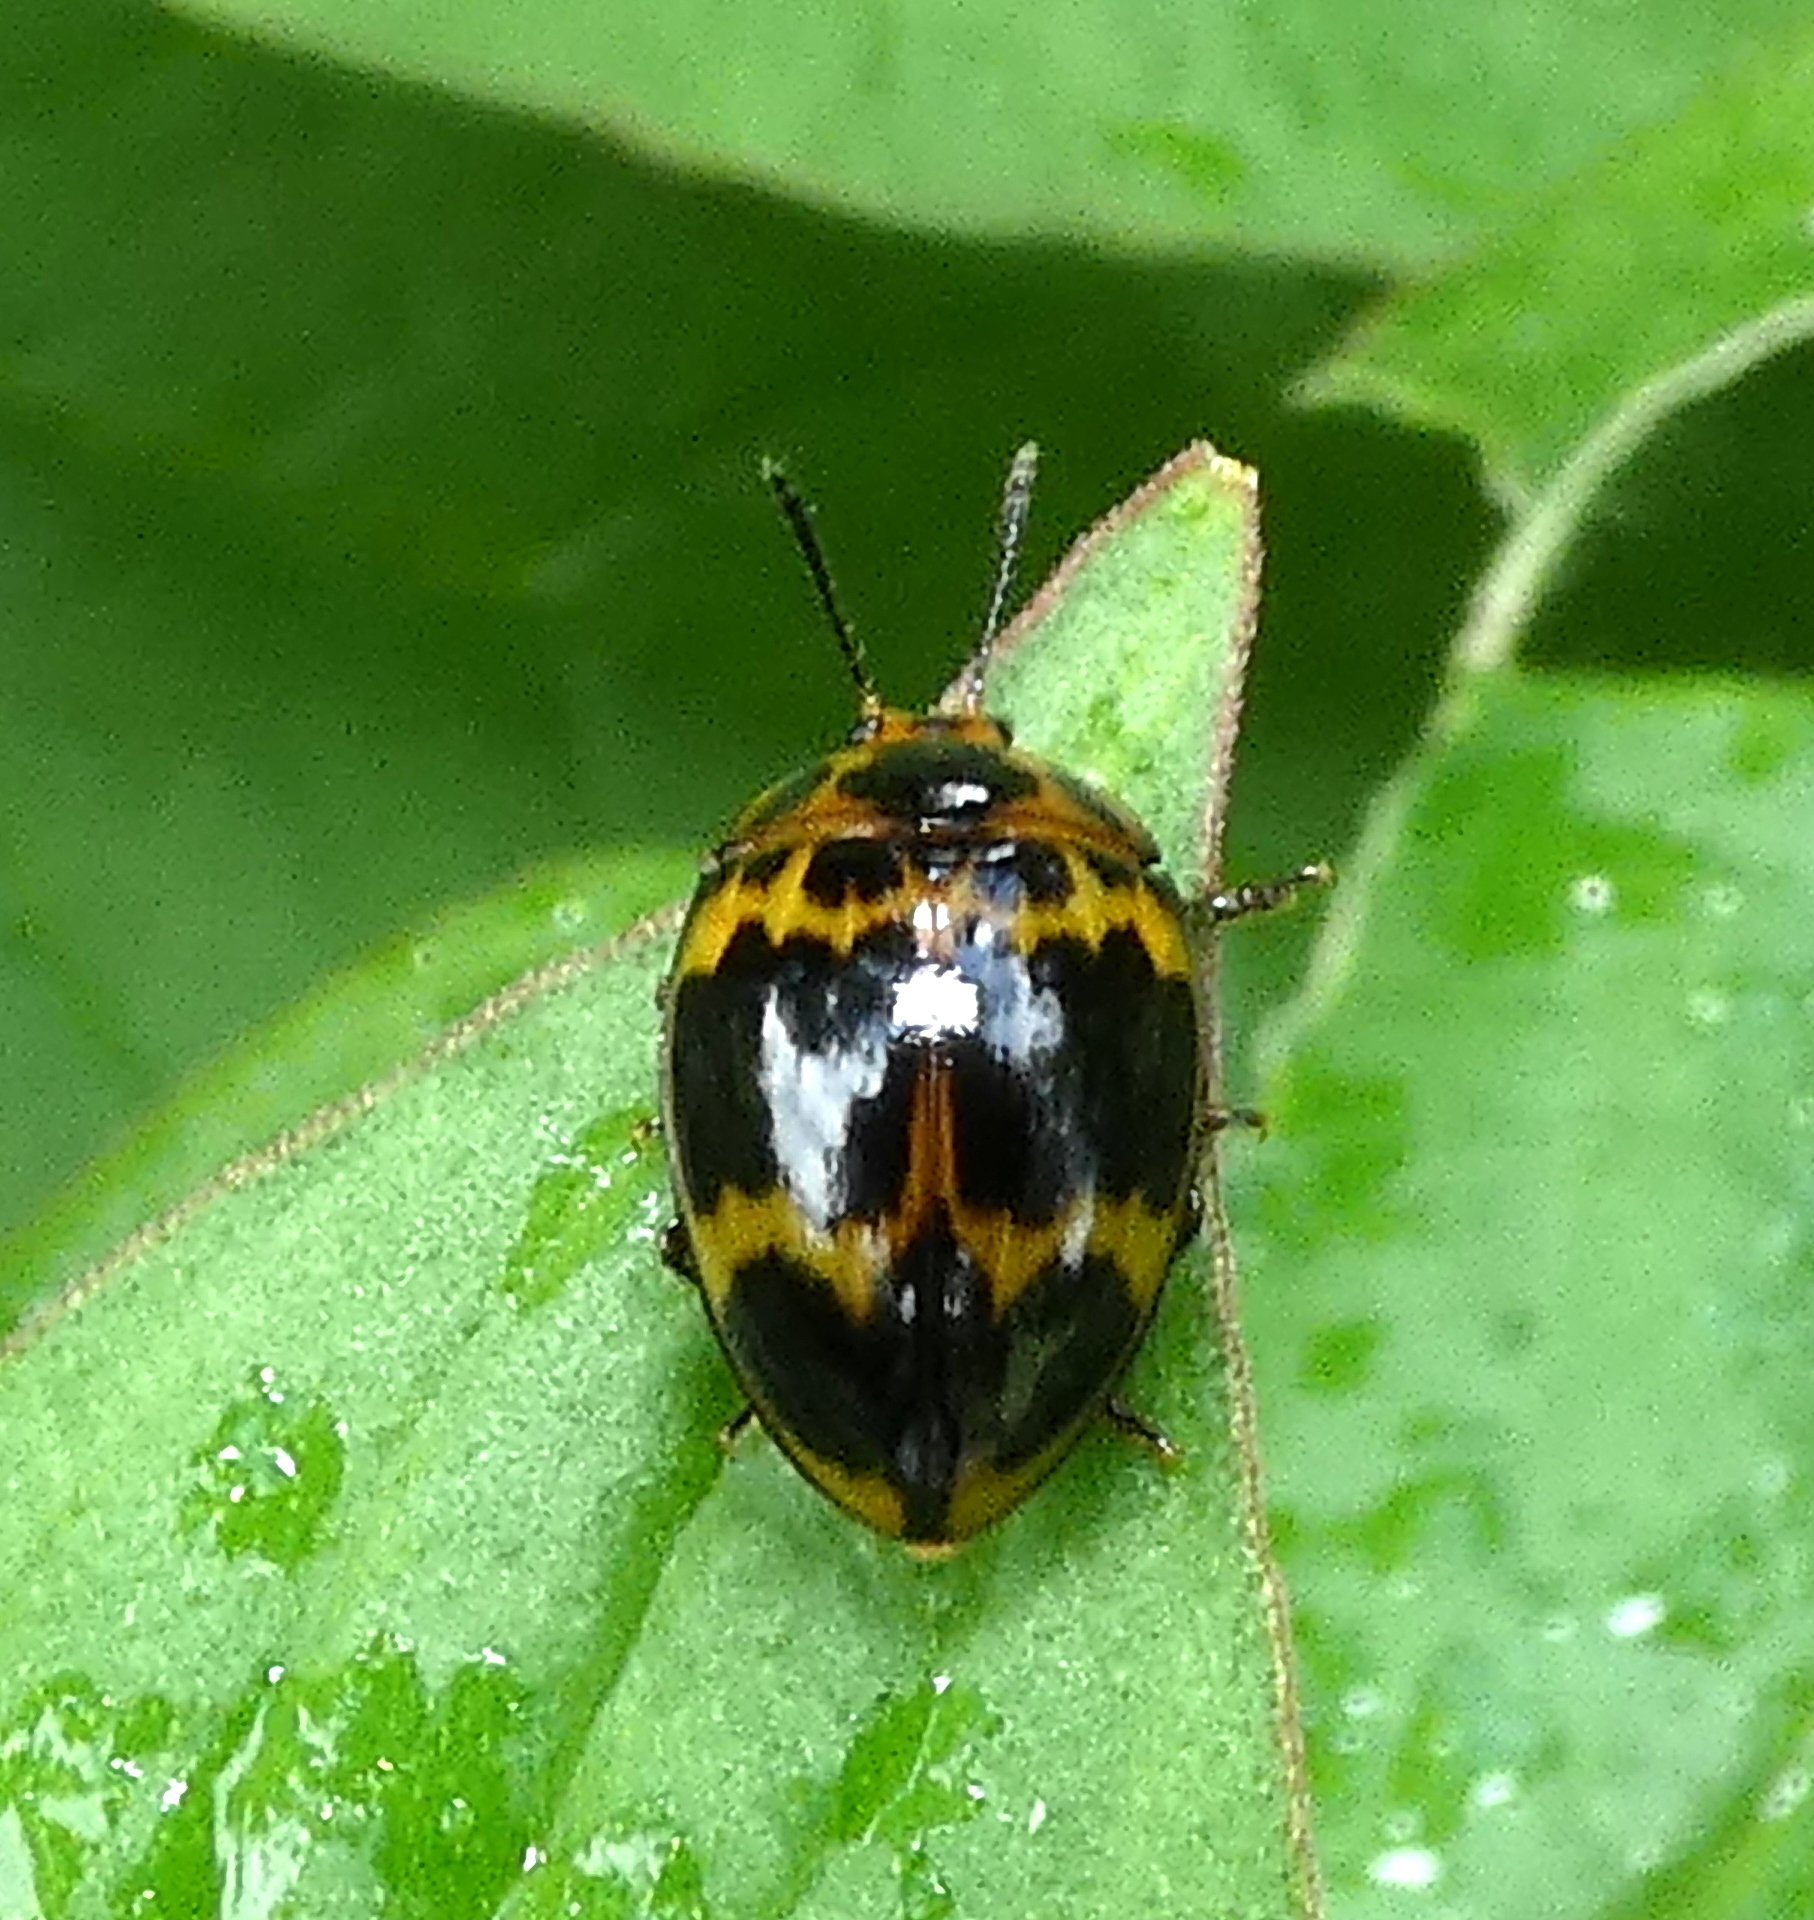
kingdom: Animalia
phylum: Arthropoda
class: Insecta
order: Coleoptera
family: Erotylidae
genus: Iphiclus
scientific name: Iphiclus
